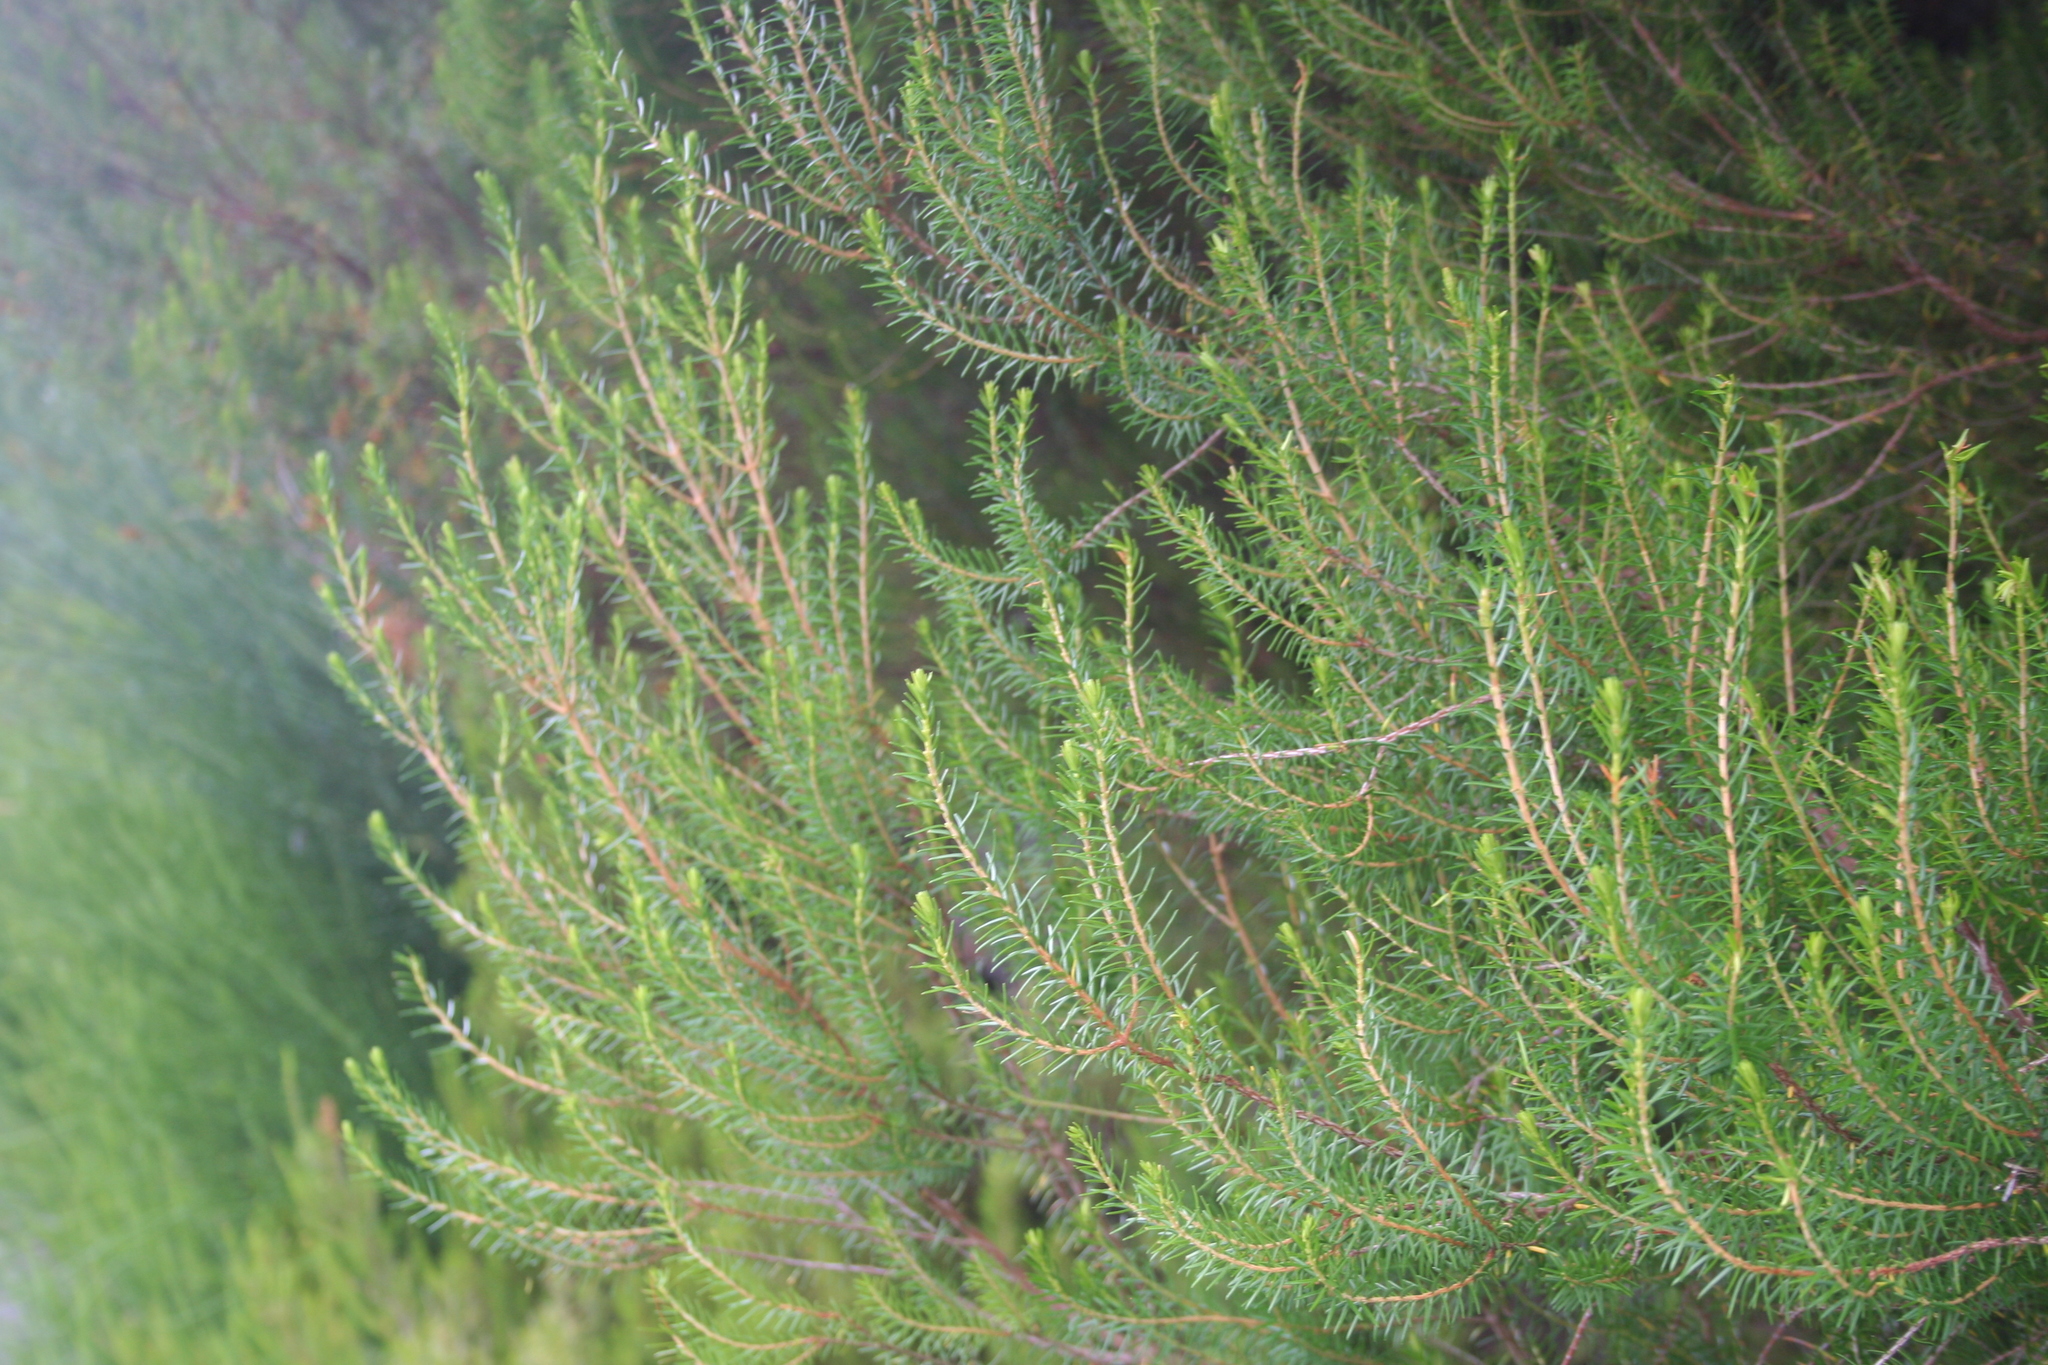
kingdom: Plantae
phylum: Tracheophyta
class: Magnoliopsida
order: Ericales
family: Ericaceae
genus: Erica
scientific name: Erica canariensis
